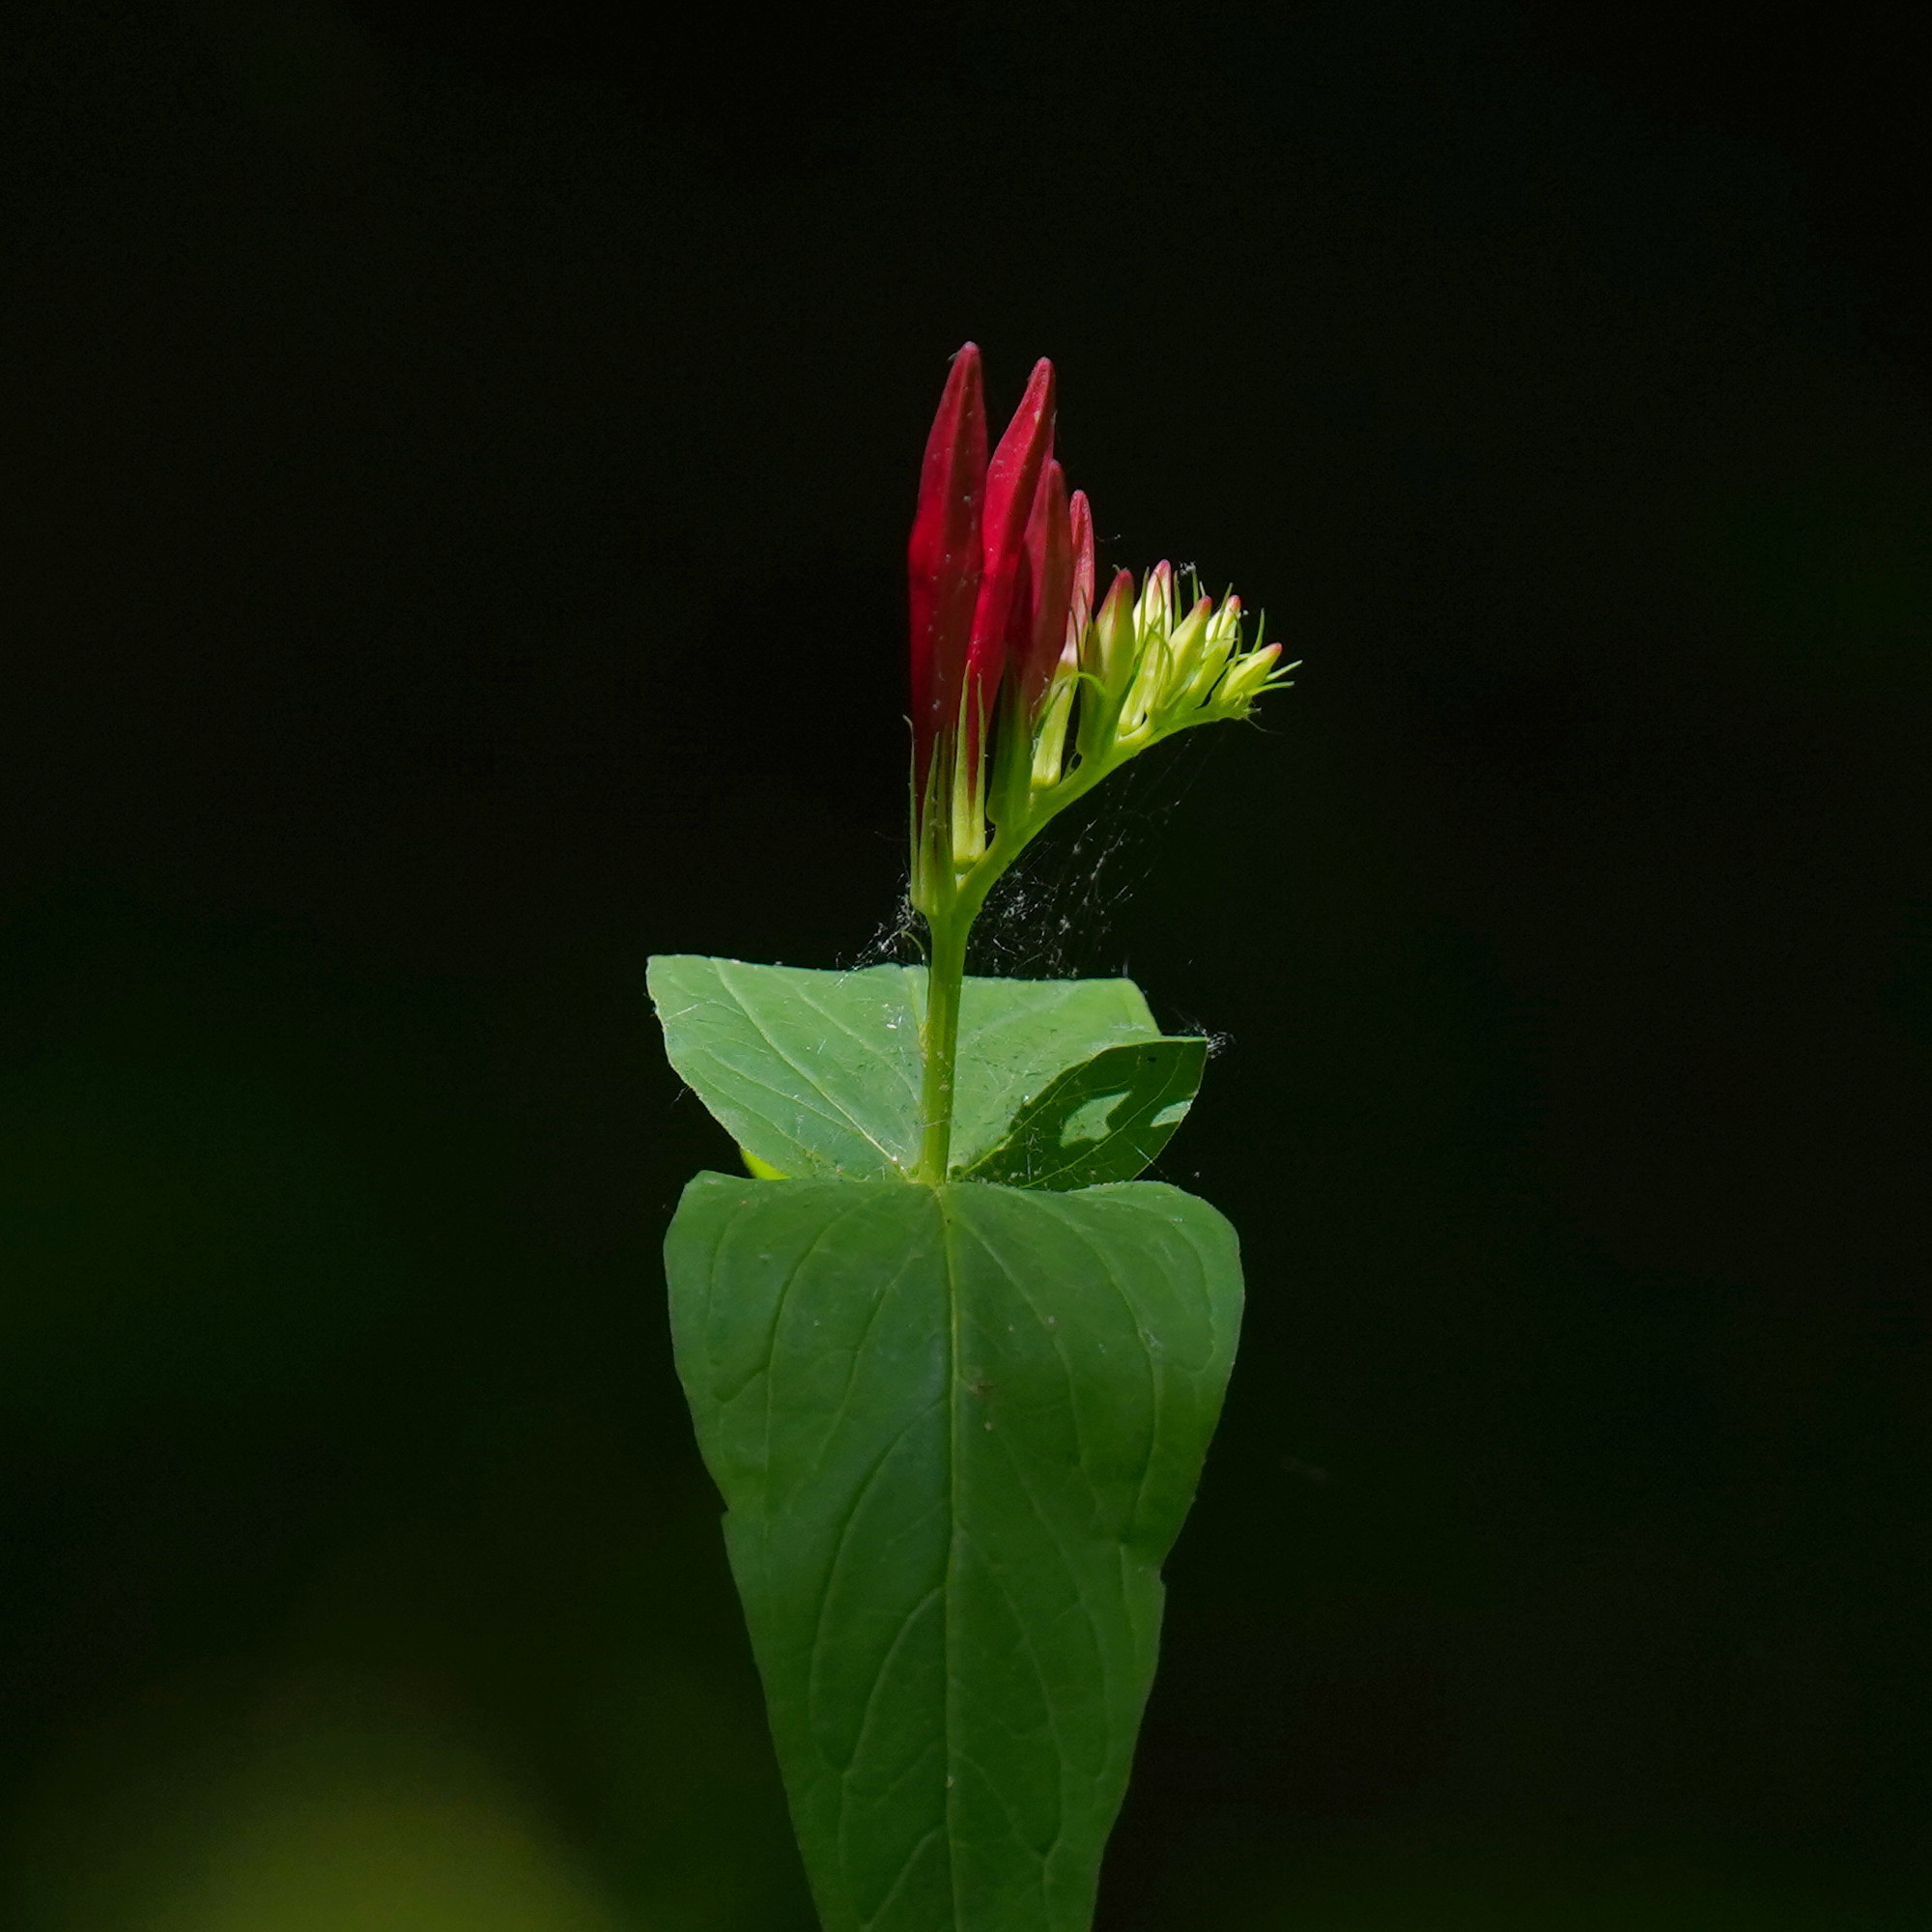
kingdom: Plantae
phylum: Tracheophyta
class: Magnoliopsida
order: Gentianales
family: Loganiaceae
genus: Spigelia
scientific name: Spigelia marilandica
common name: Indian-pink
